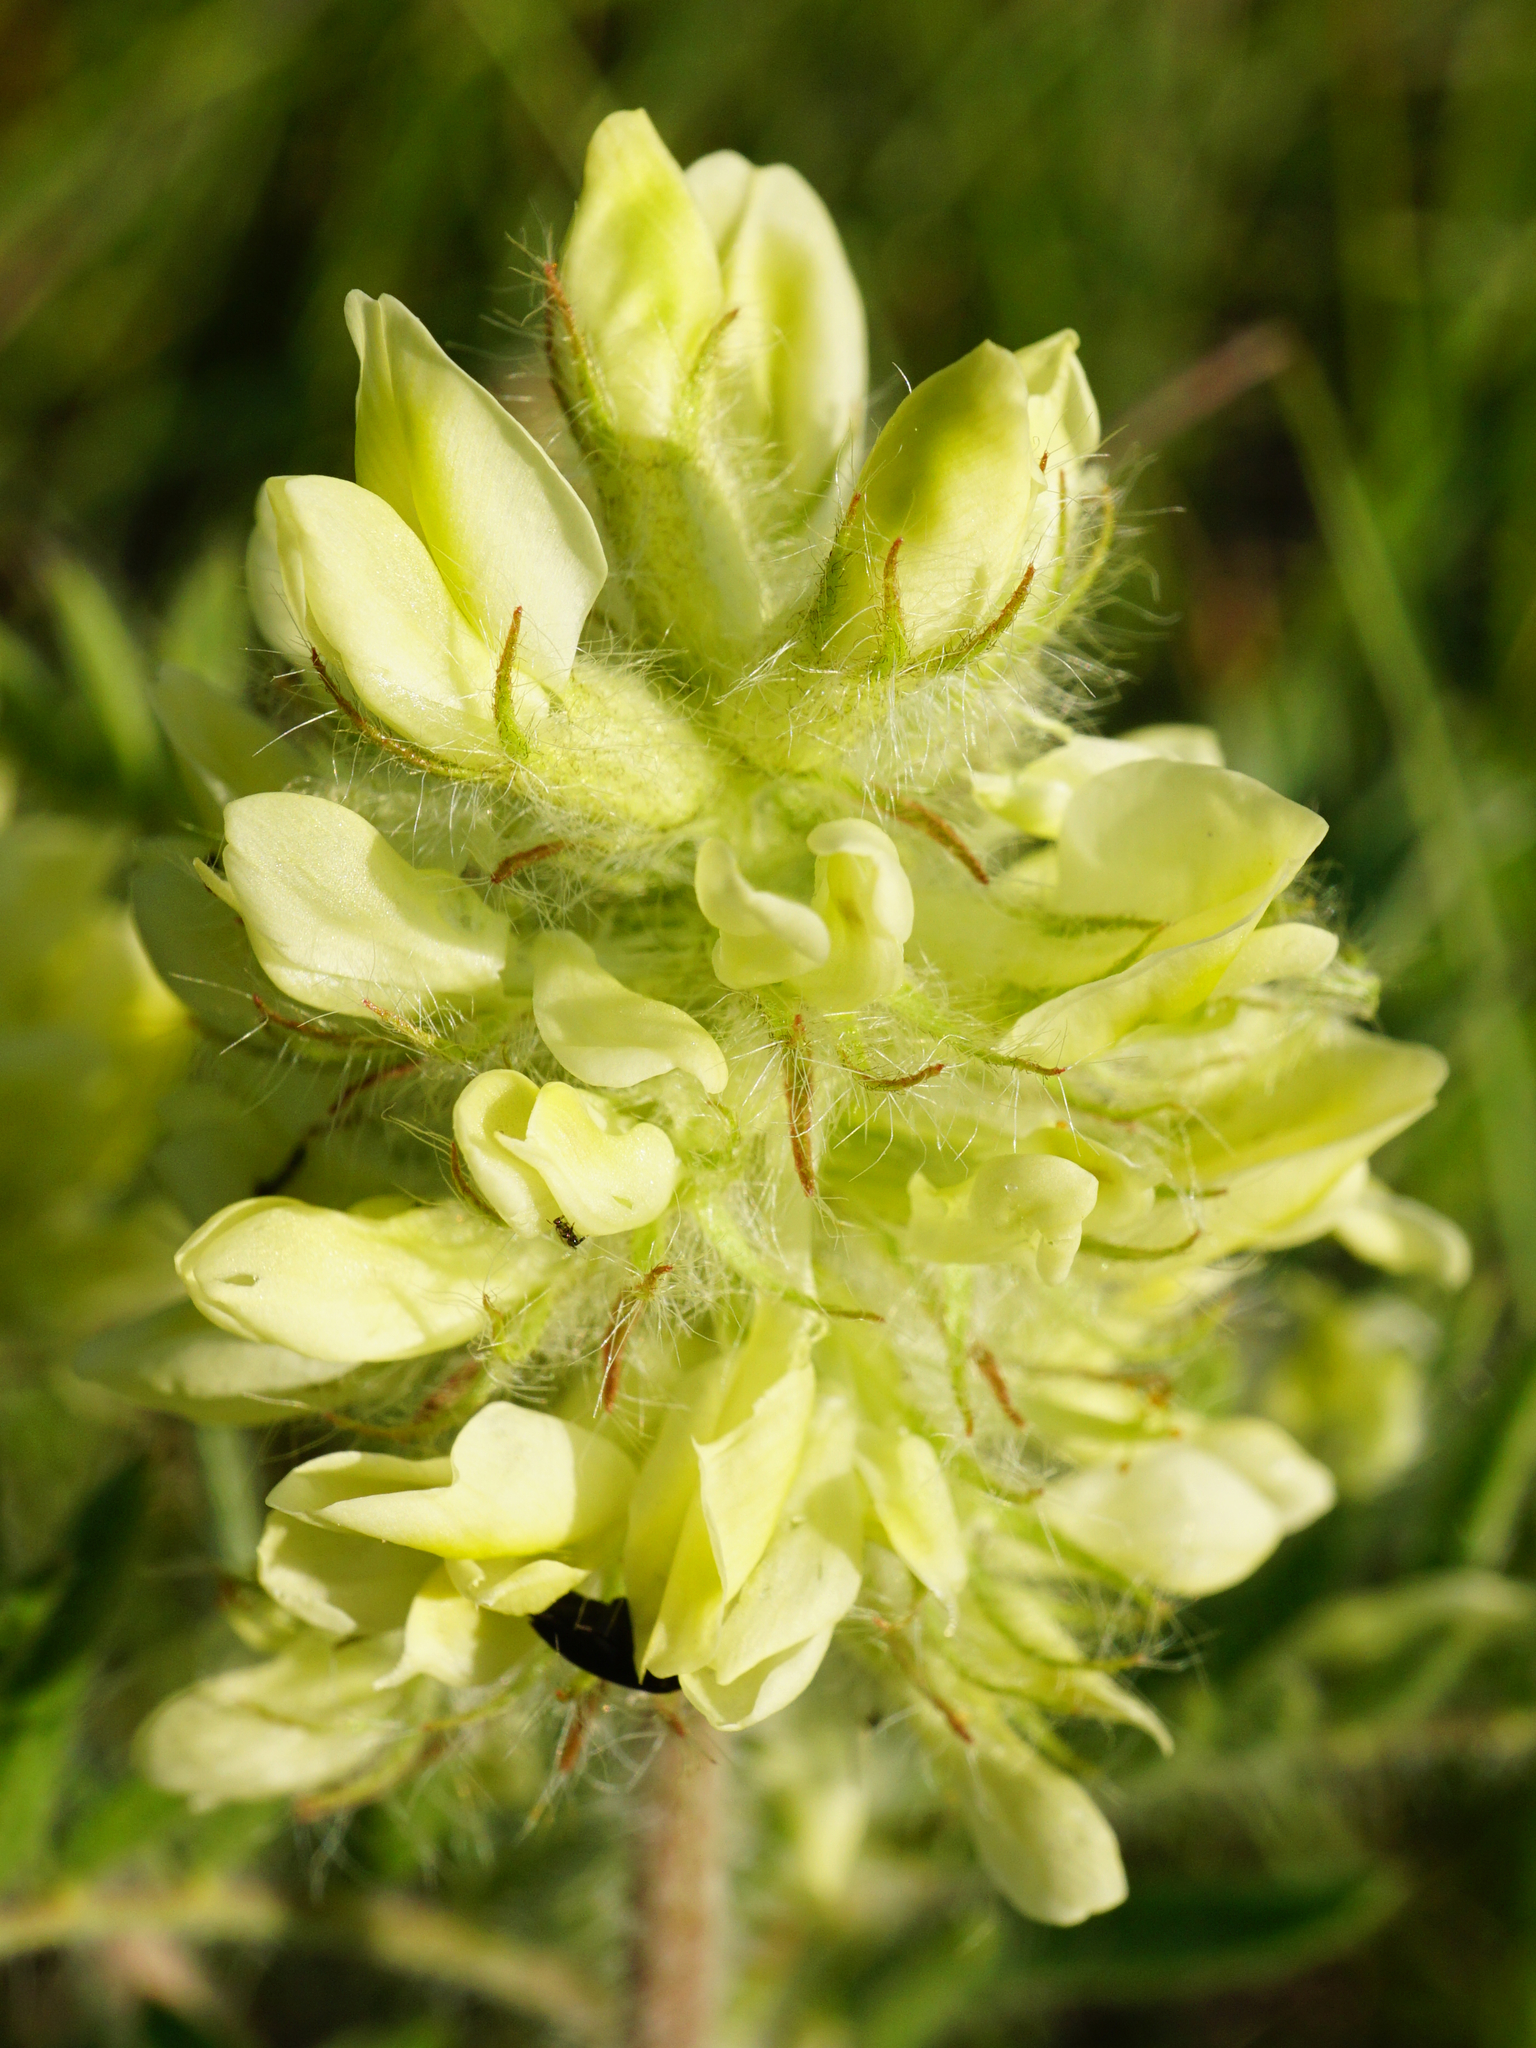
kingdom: Plantae
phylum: Tracheophyta
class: Magnoliopsida
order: Fabales
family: Fabaceae
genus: Oxytropis
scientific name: Oxytropis pilosa
